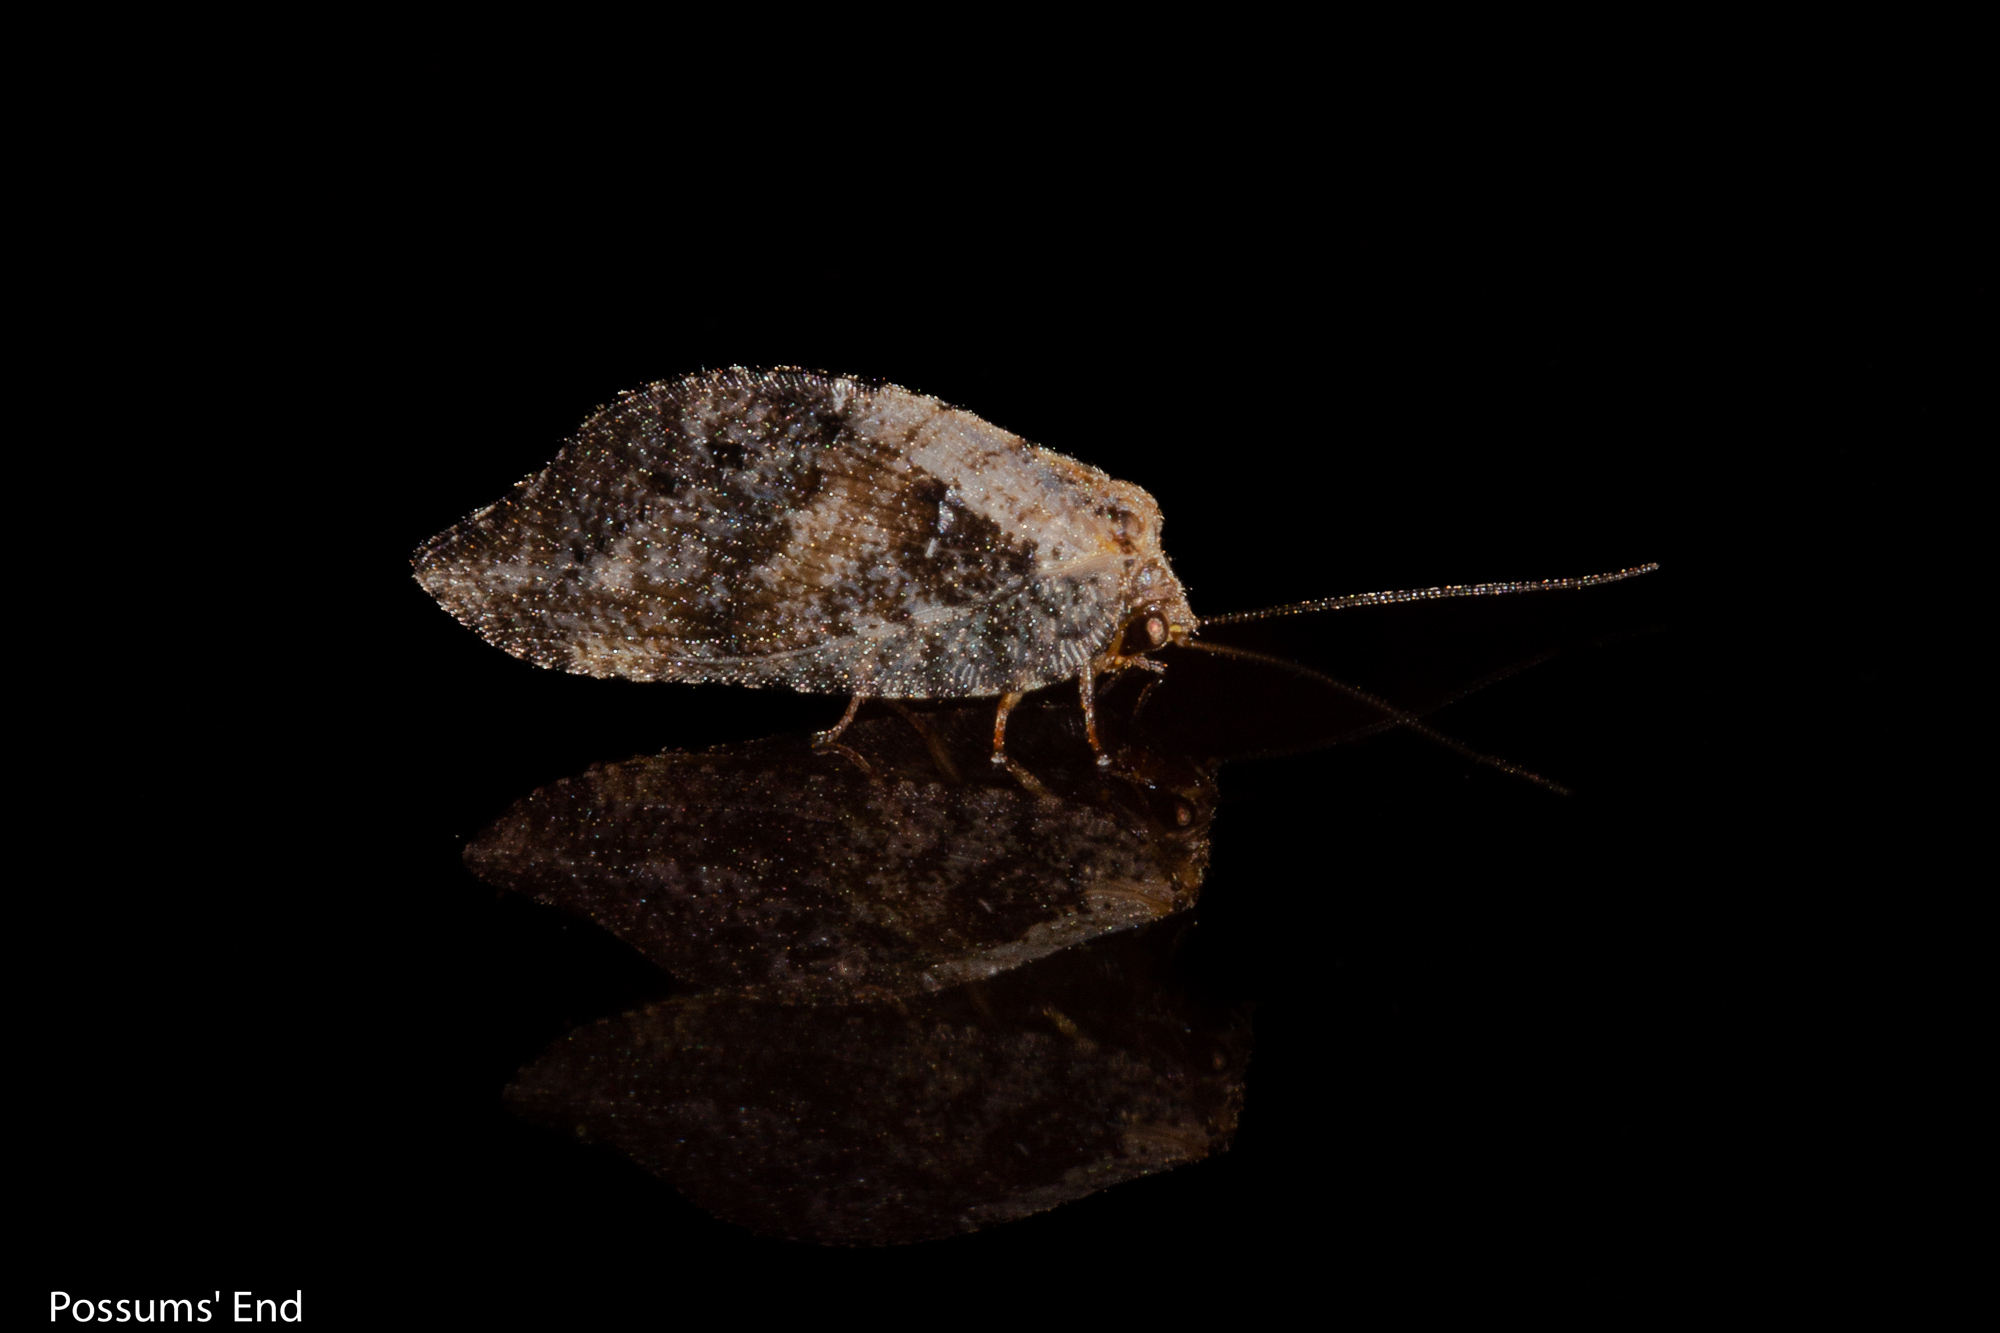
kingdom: Animalia
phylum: Arthropoda
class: Insecta
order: Neuroptera
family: Hemerobiidae
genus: Drepanacra
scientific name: Drepanacra binocula
